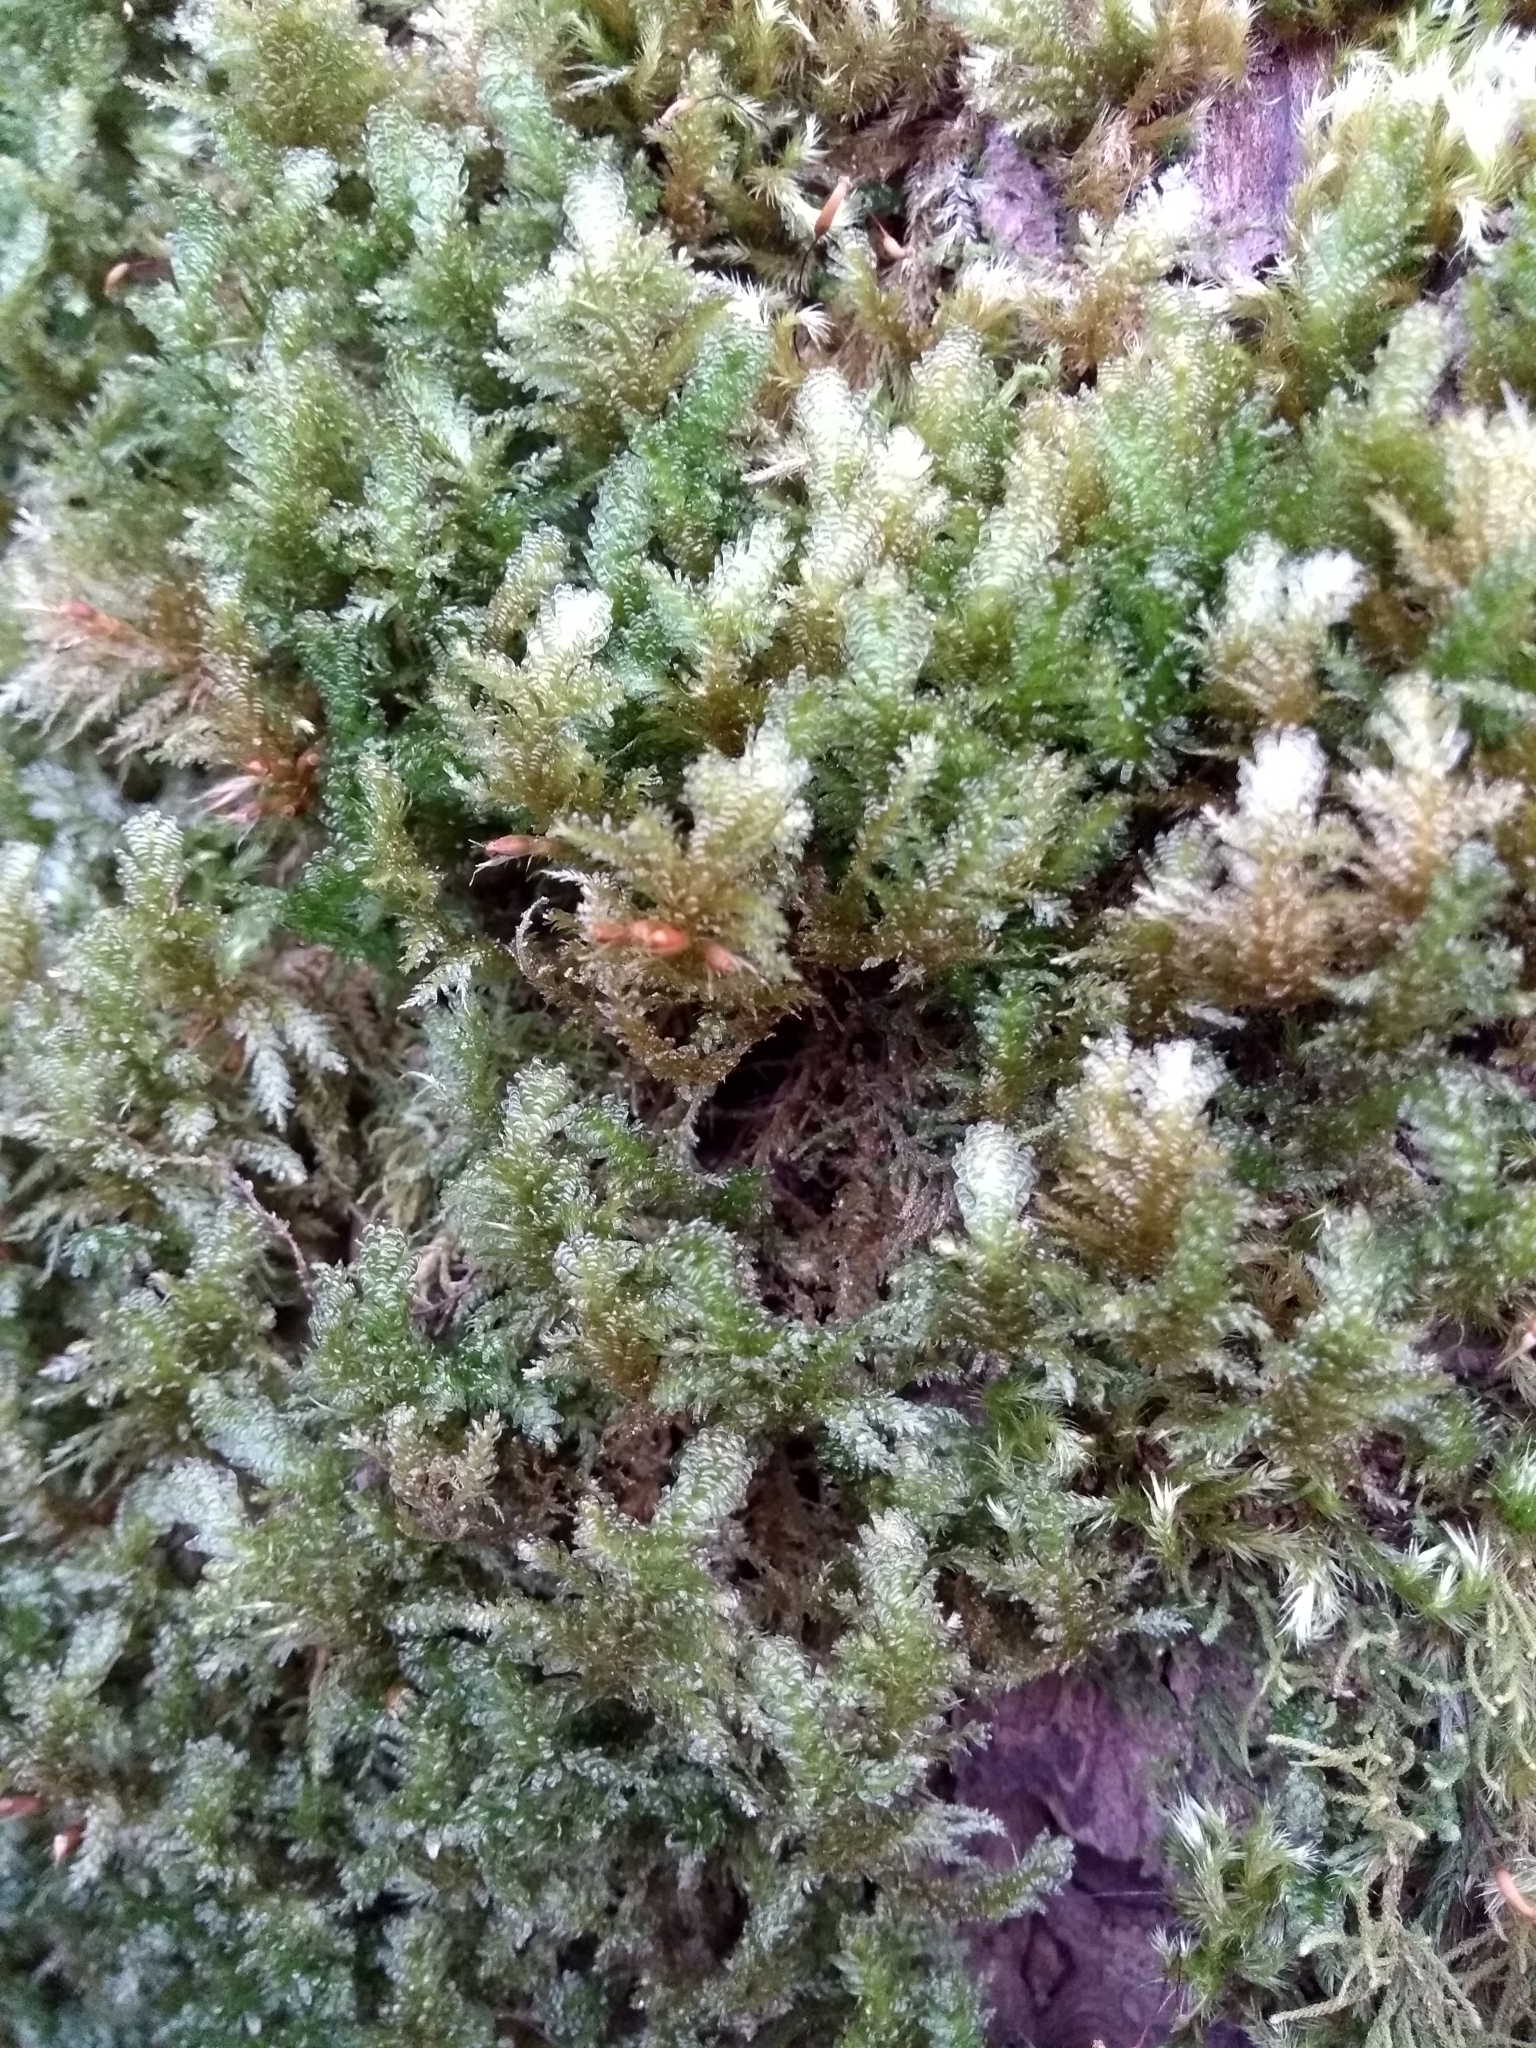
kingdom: Plantae
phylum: Bryophyta
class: Bryopsida
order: Hypnales
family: Neckeraceae
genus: Metaneckera
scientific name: Metaneckera menziesii
